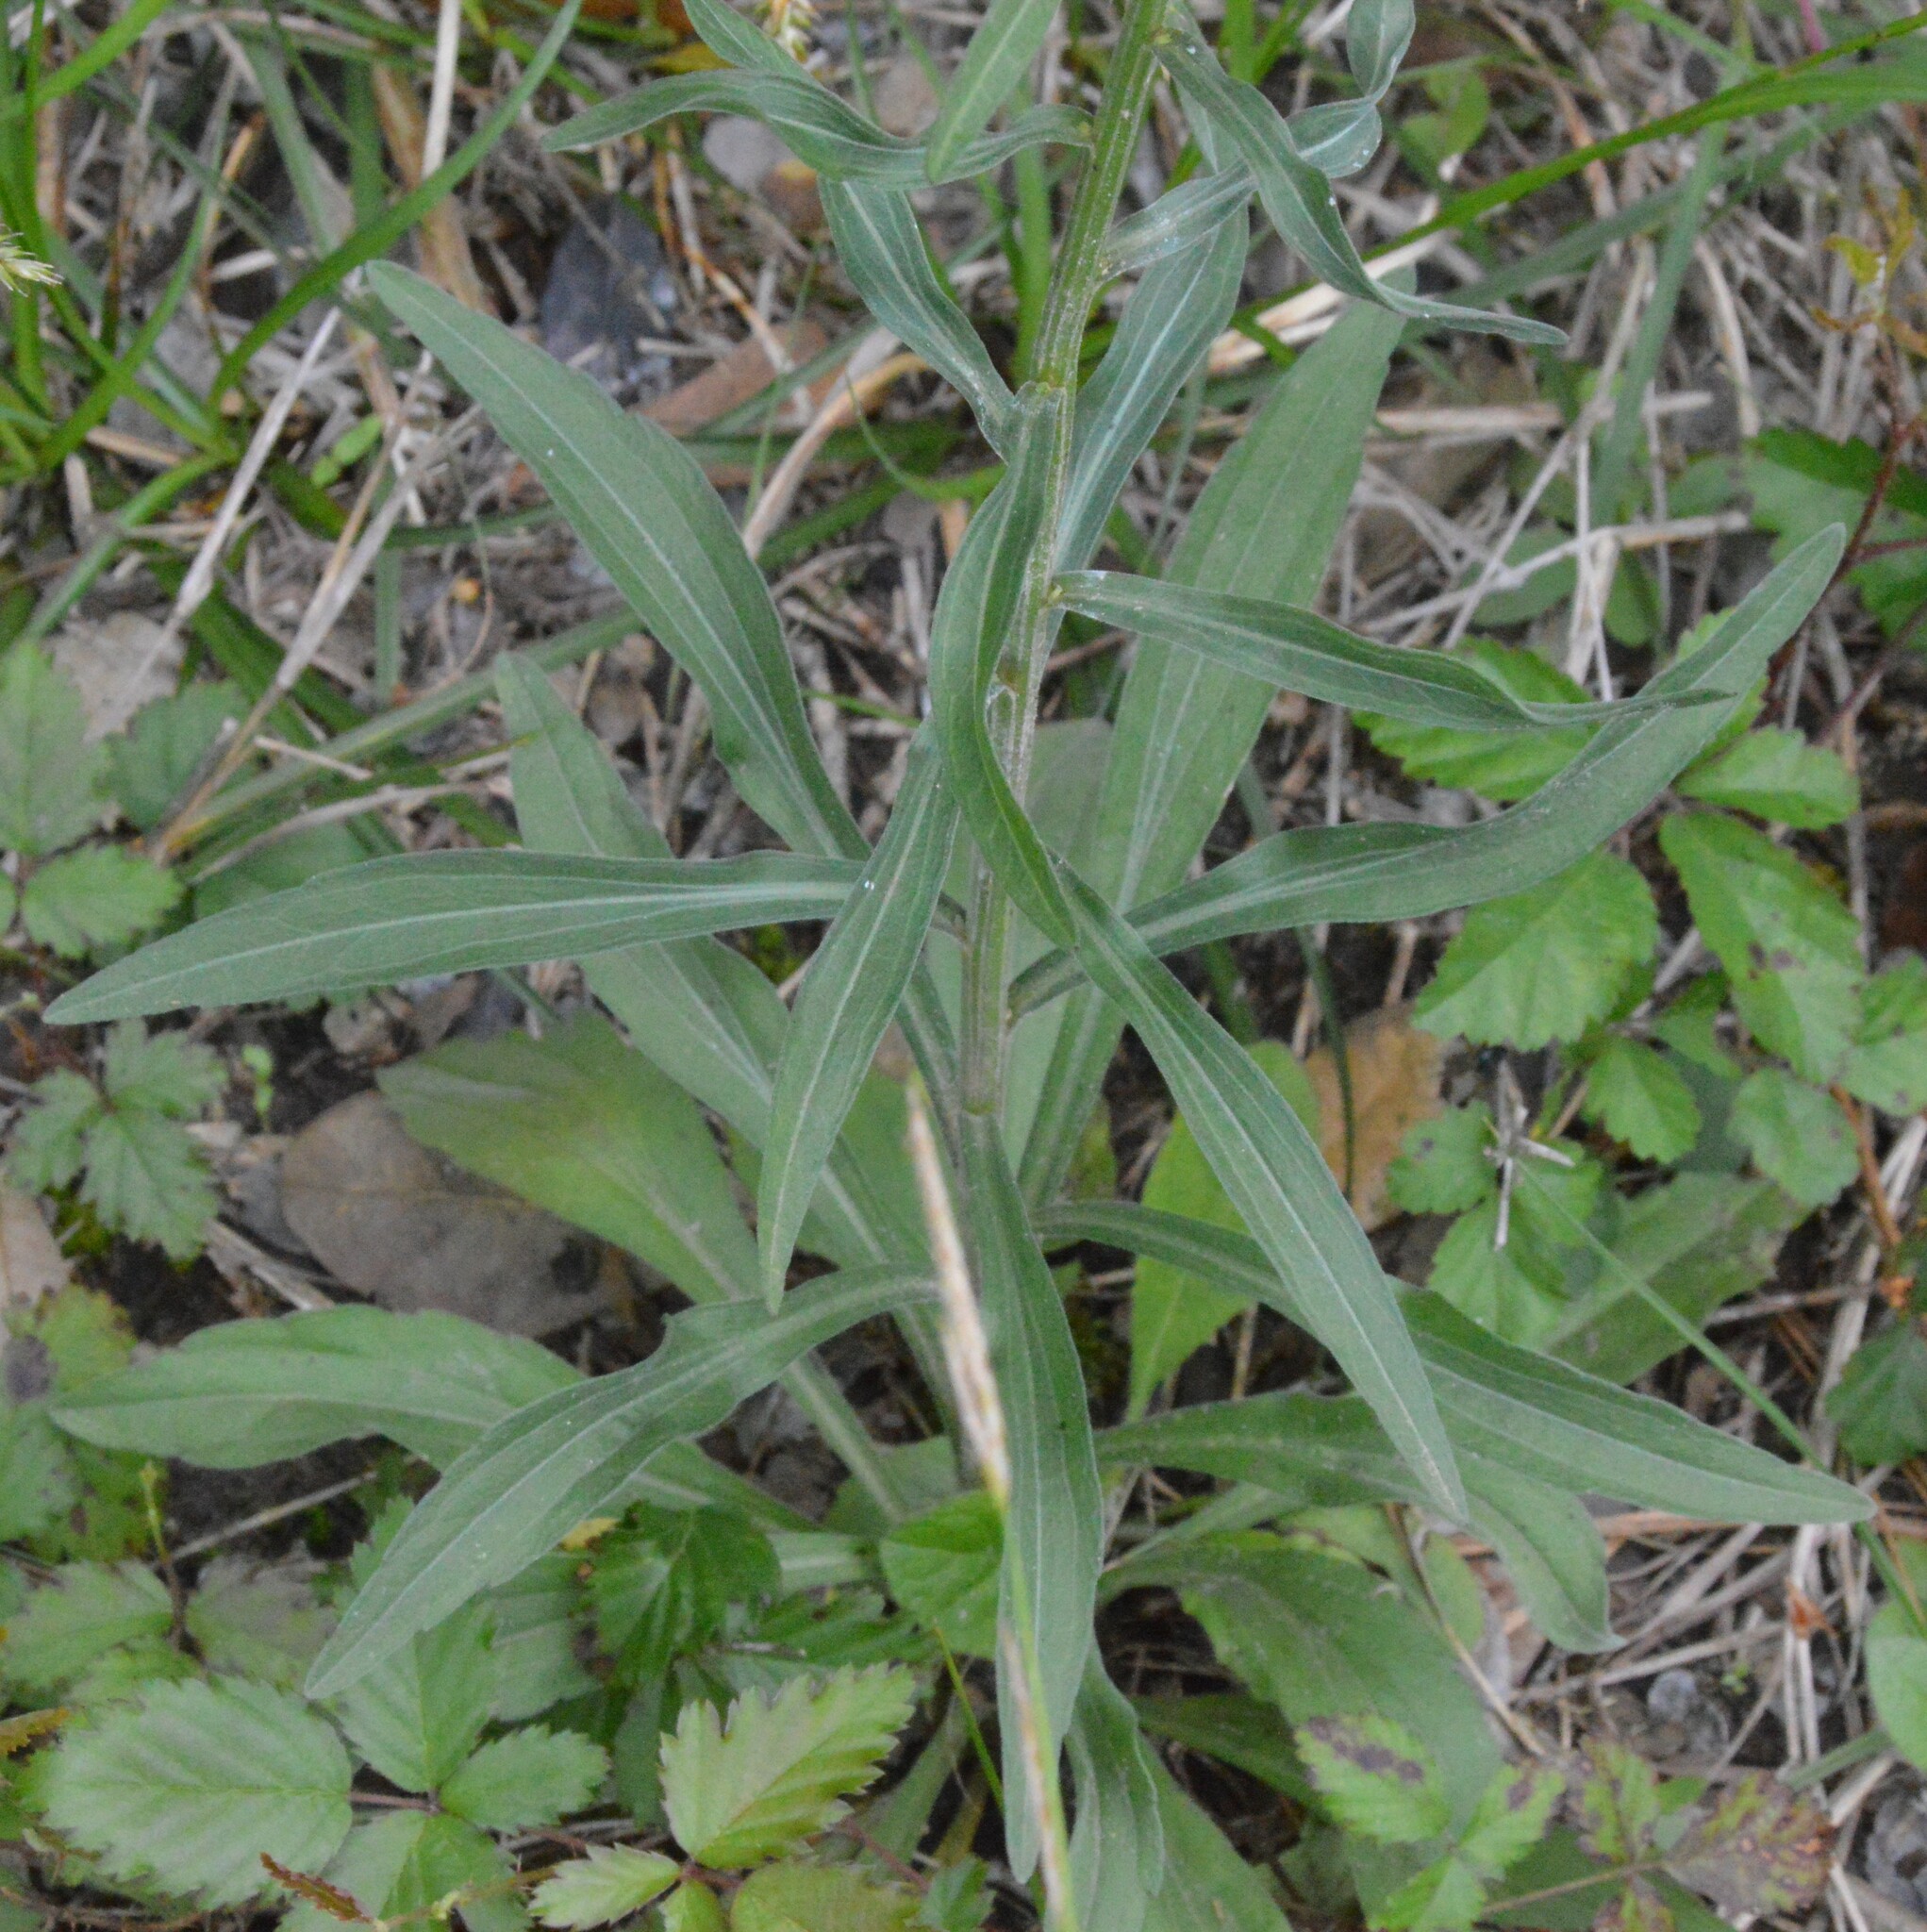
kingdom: Plantae
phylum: Tracheophyta
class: Magnoliopsida
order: Asterales
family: Asteraceae
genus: Erigeron
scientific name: Erigeron strigosus
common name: Common eastern fleabane
